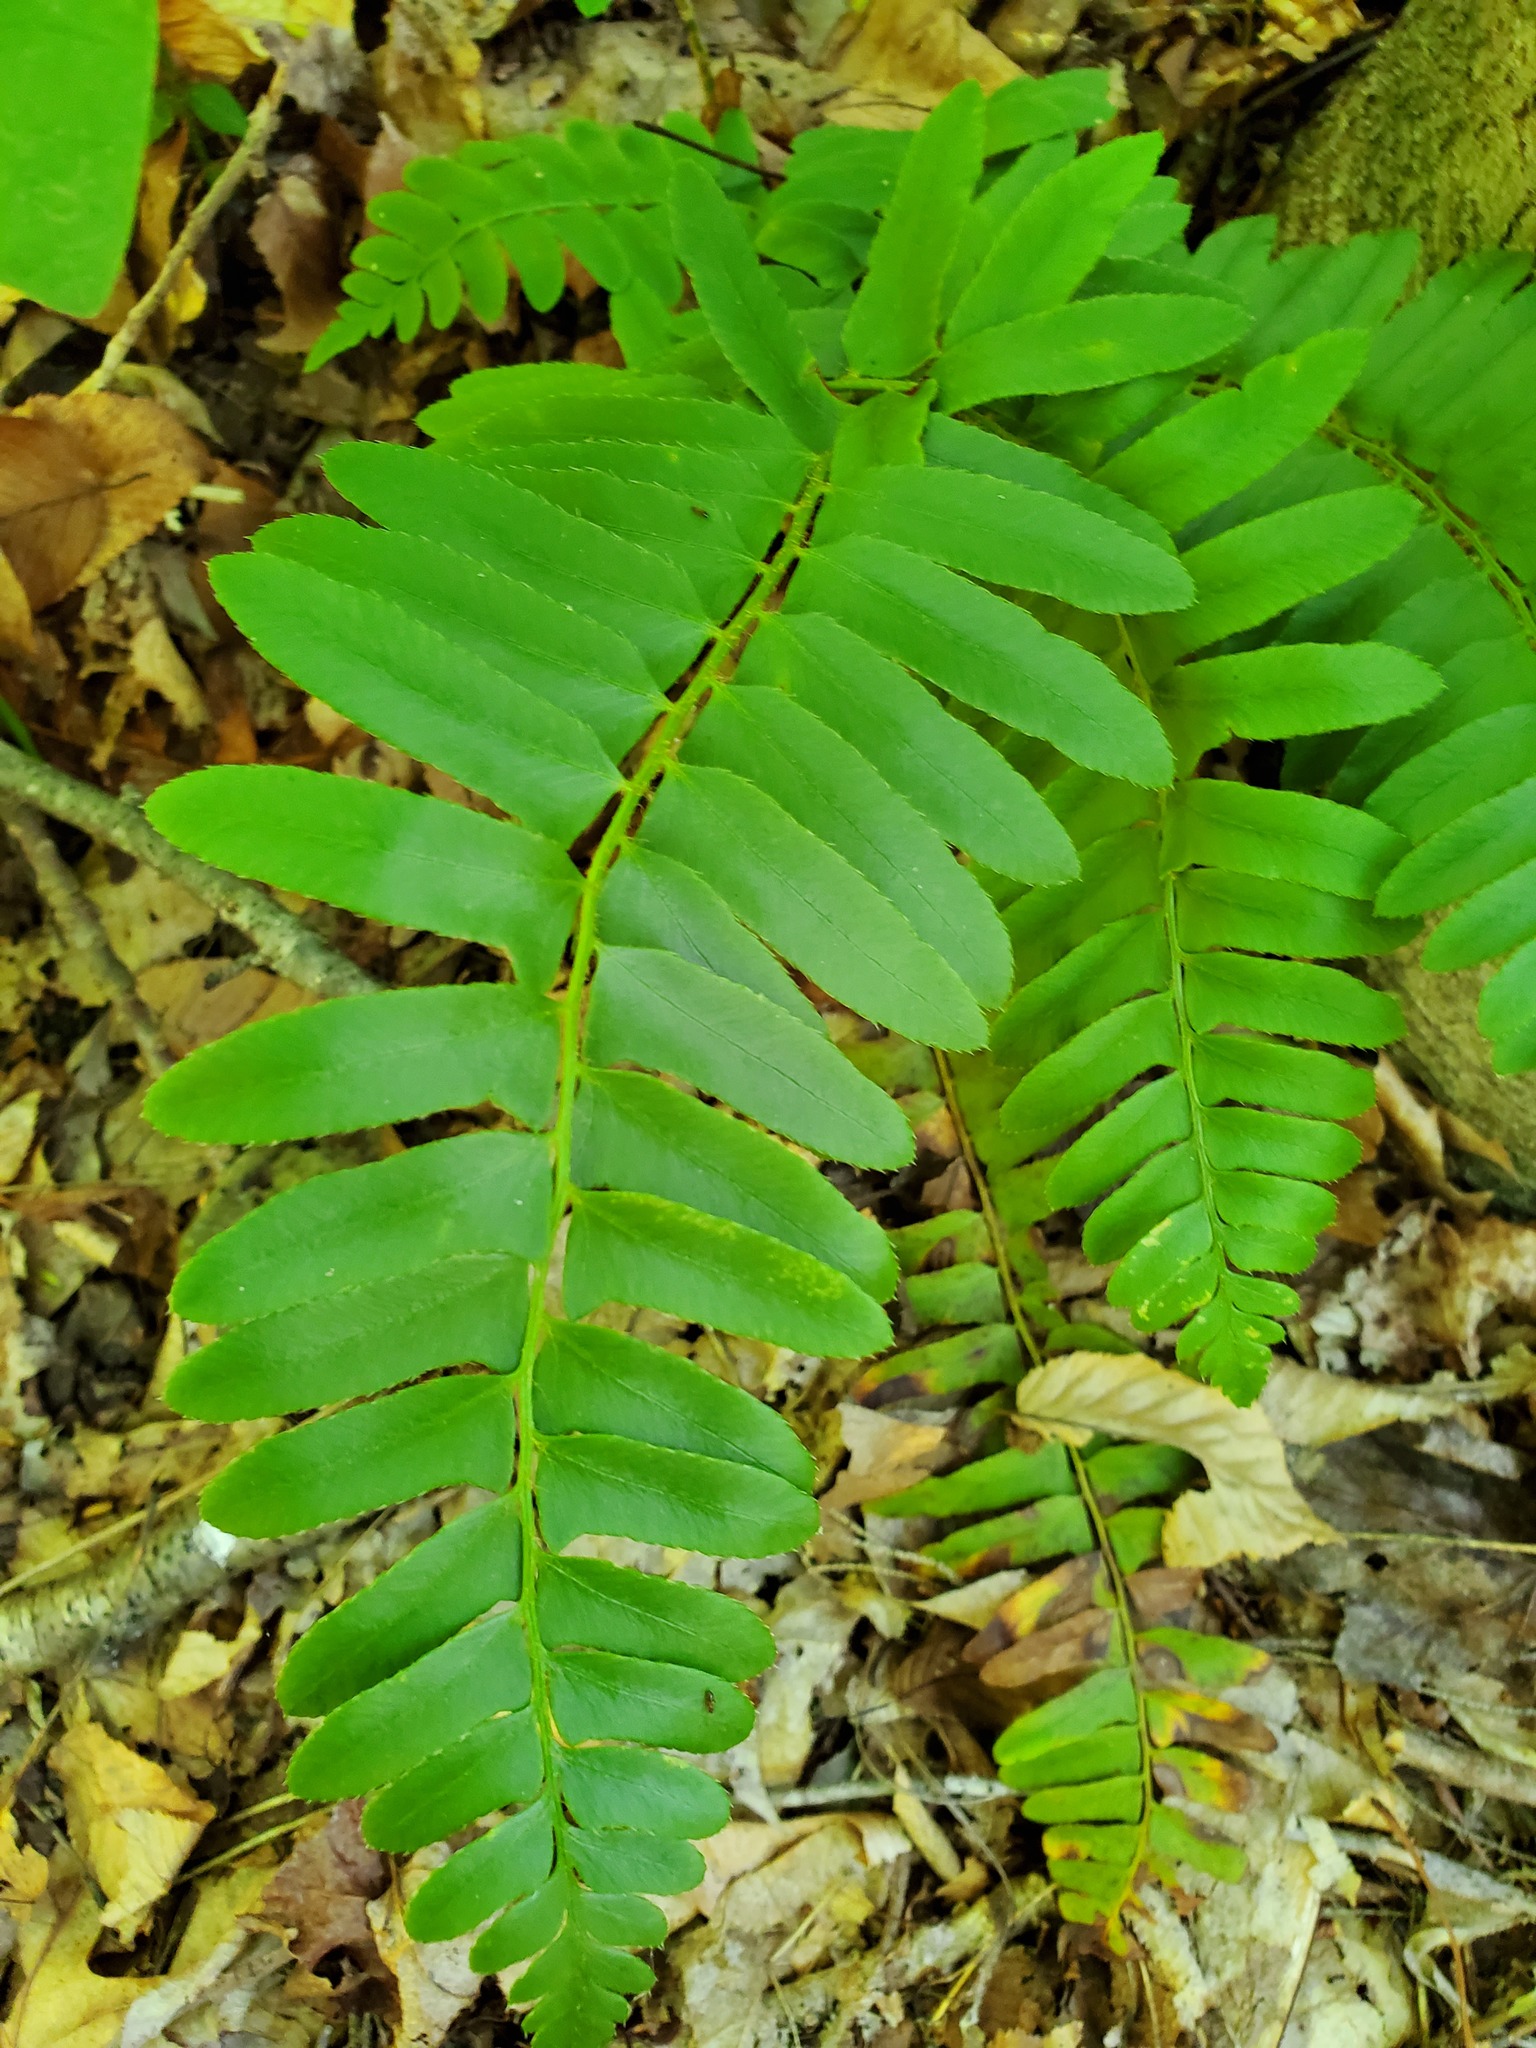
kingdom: Plantae
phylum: Tracheophyta
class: Polypodiopsida
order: Polypodiales
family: Dryopteridaceae
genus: Polystichum
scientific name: Polystichum acrostichoides
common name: Christmas fern
